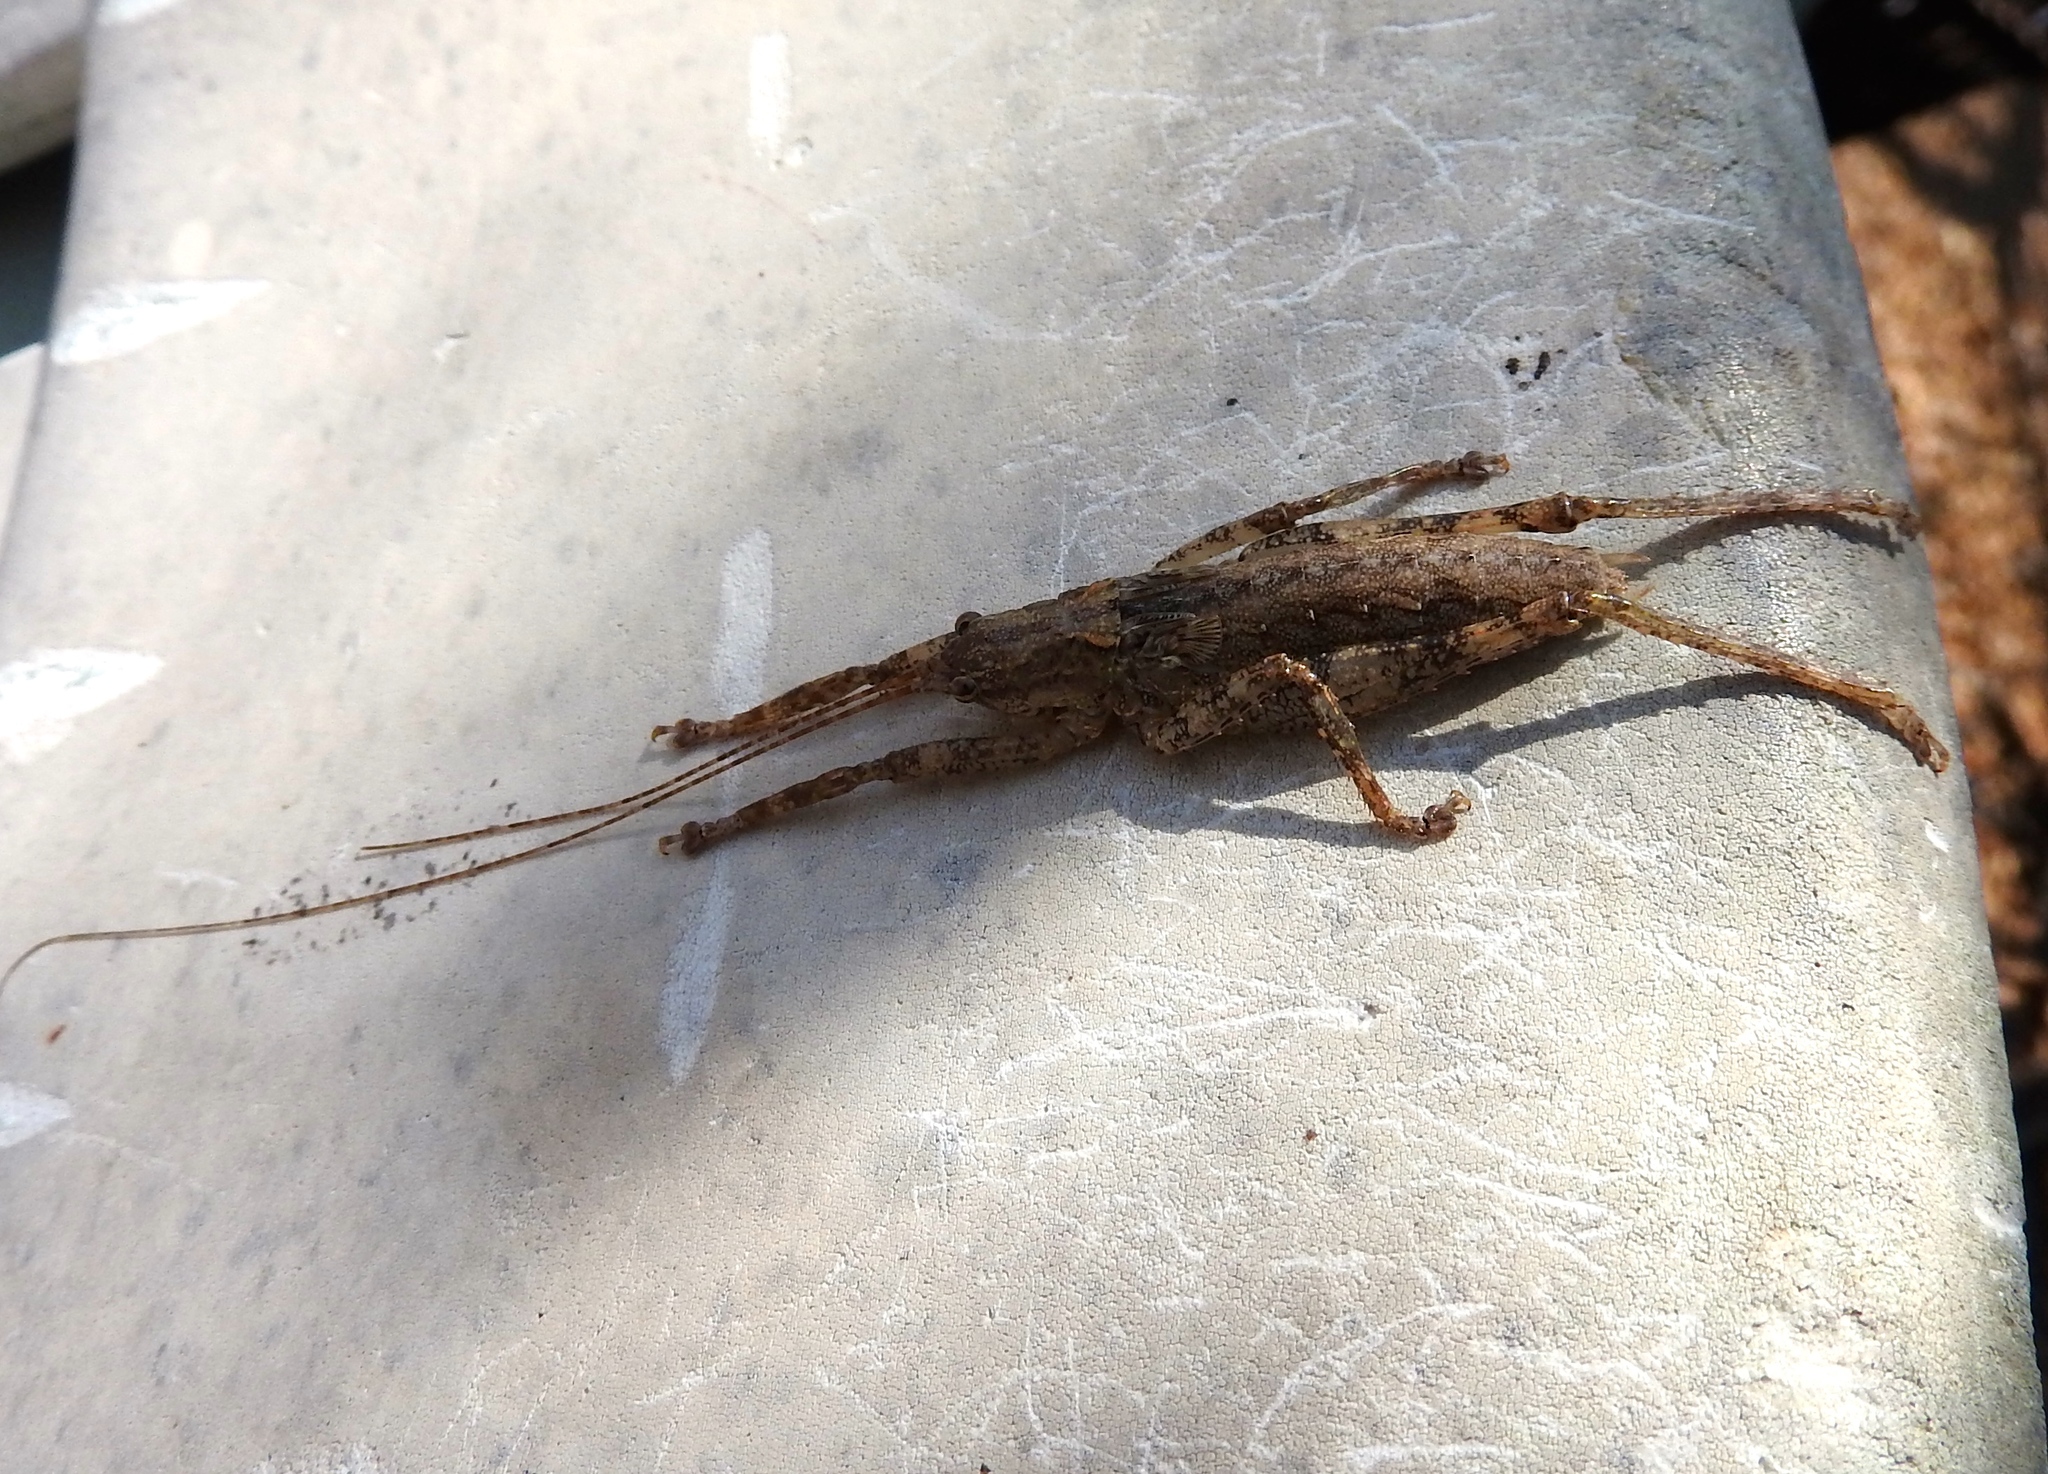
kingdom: Animalia
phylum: Arthropoda
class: Insecta
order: Orthoptera
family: Tettigoniidae
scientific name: Tettigoniidae
